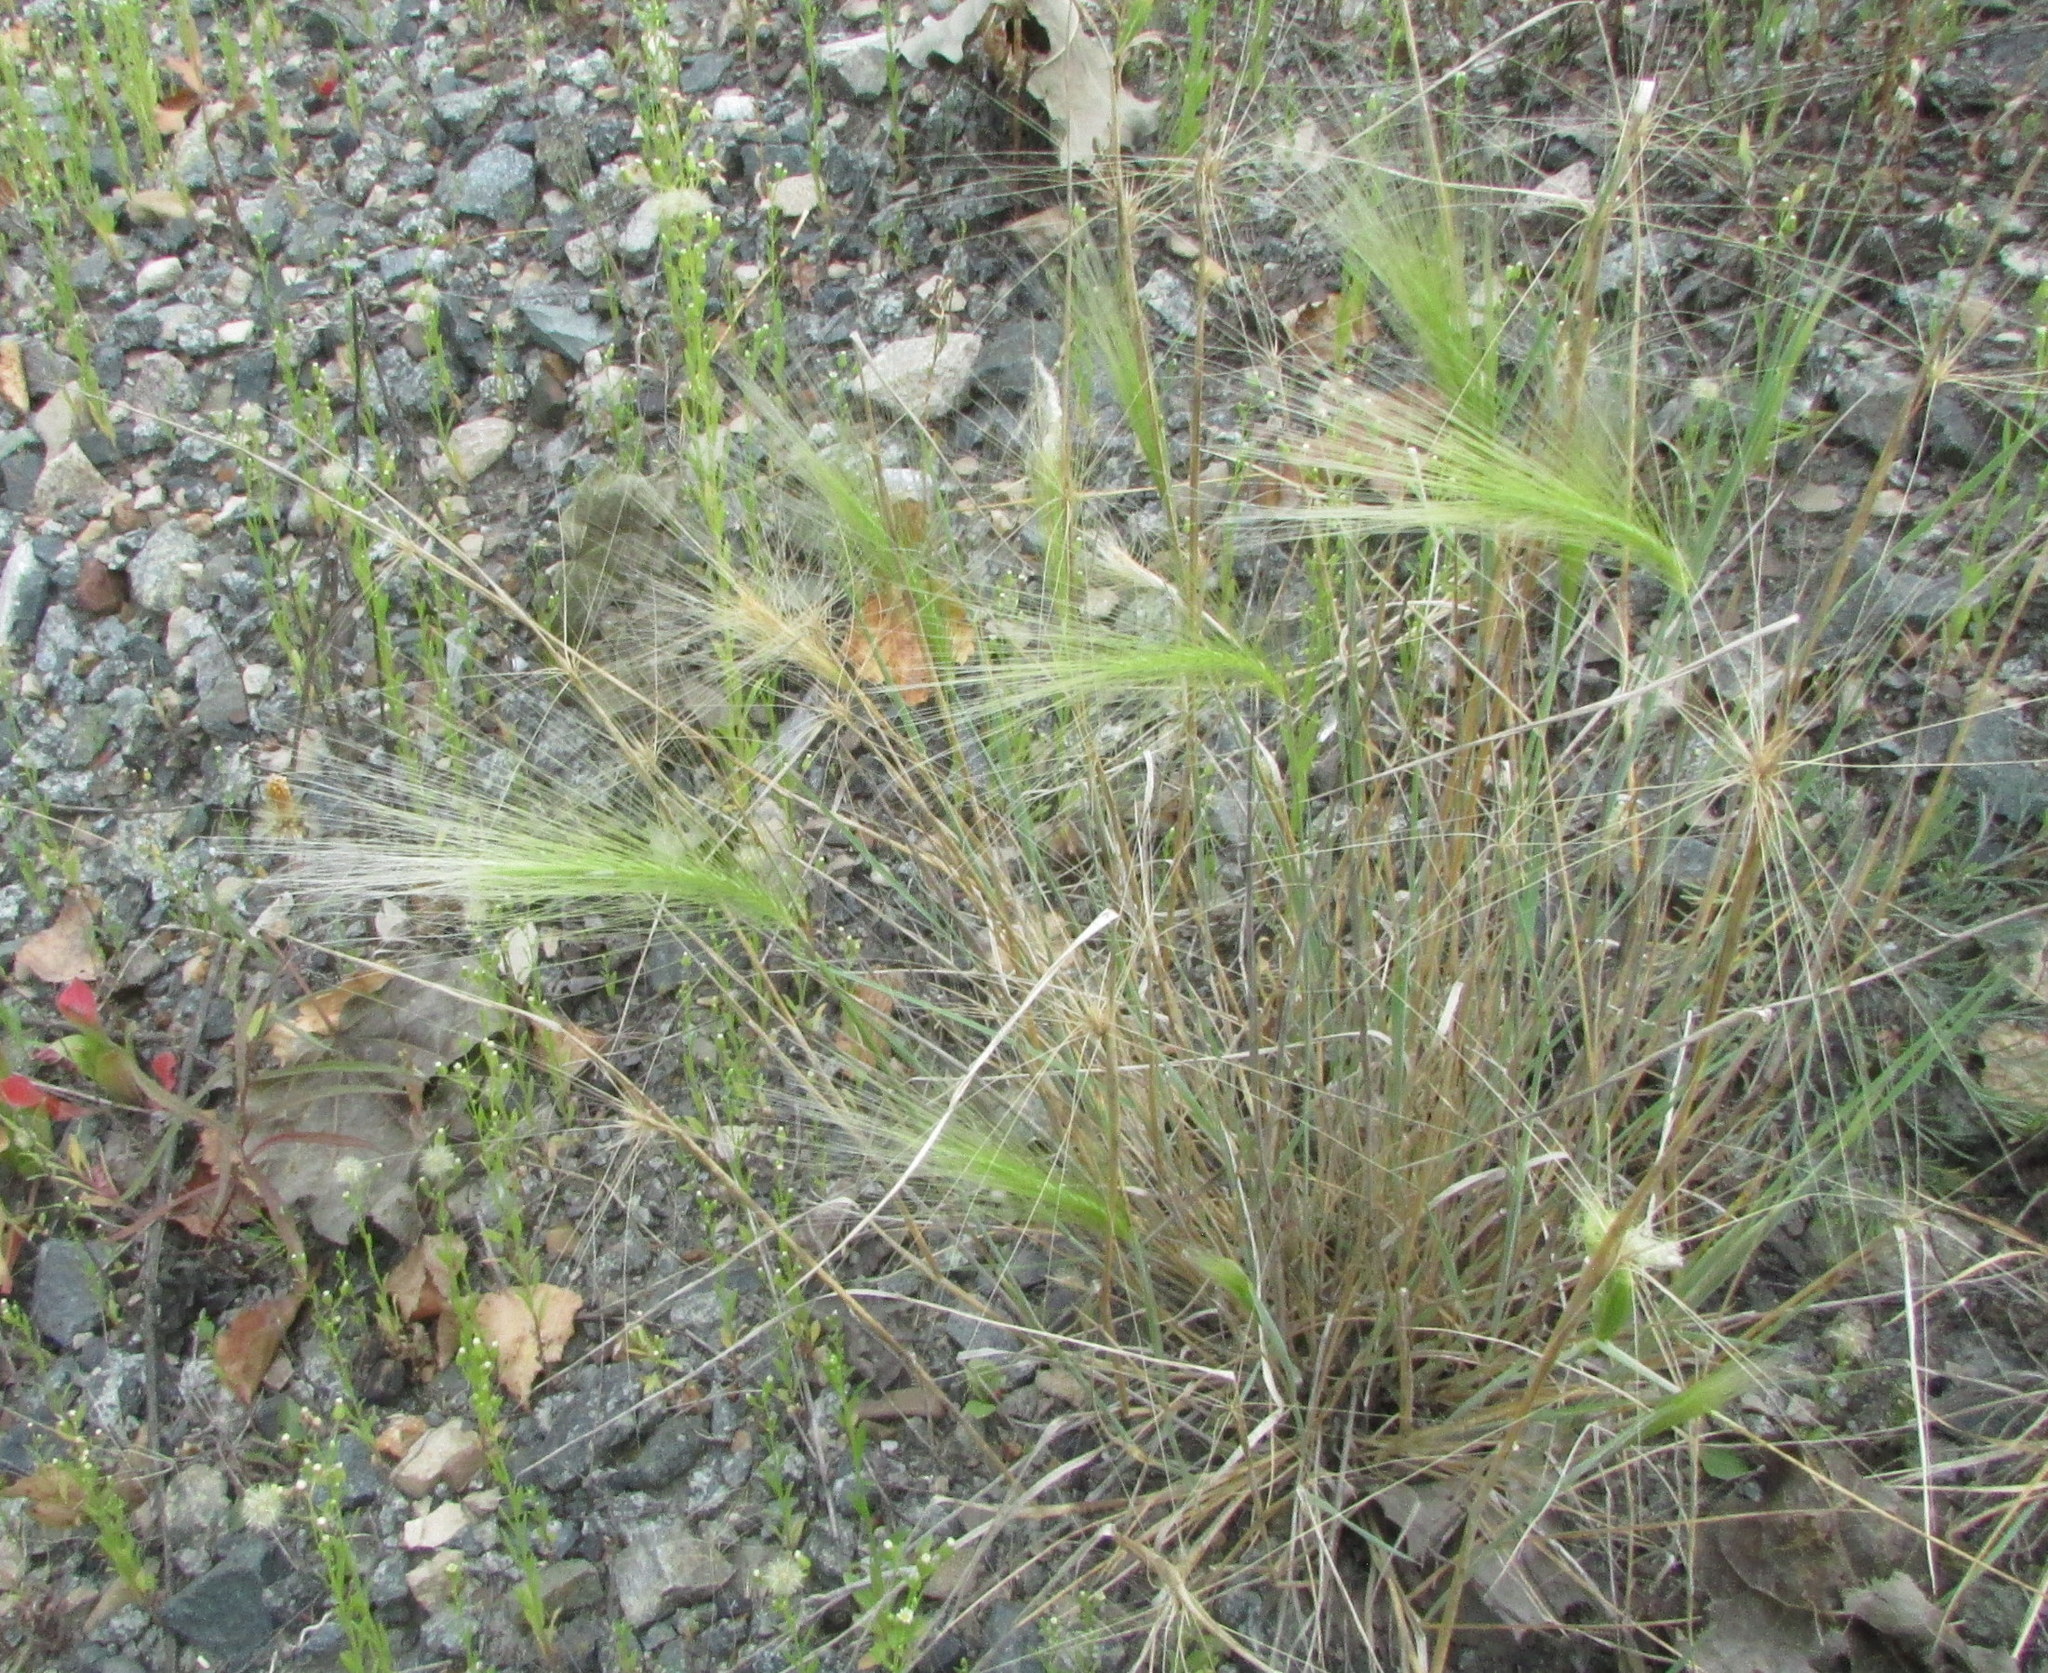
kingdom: Plantae
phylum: Tracheophyta
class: Liliopsida
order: Poales
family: Poaceae
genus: Hordeum
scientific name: Hordeum jubatum
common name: Foxtail barley
